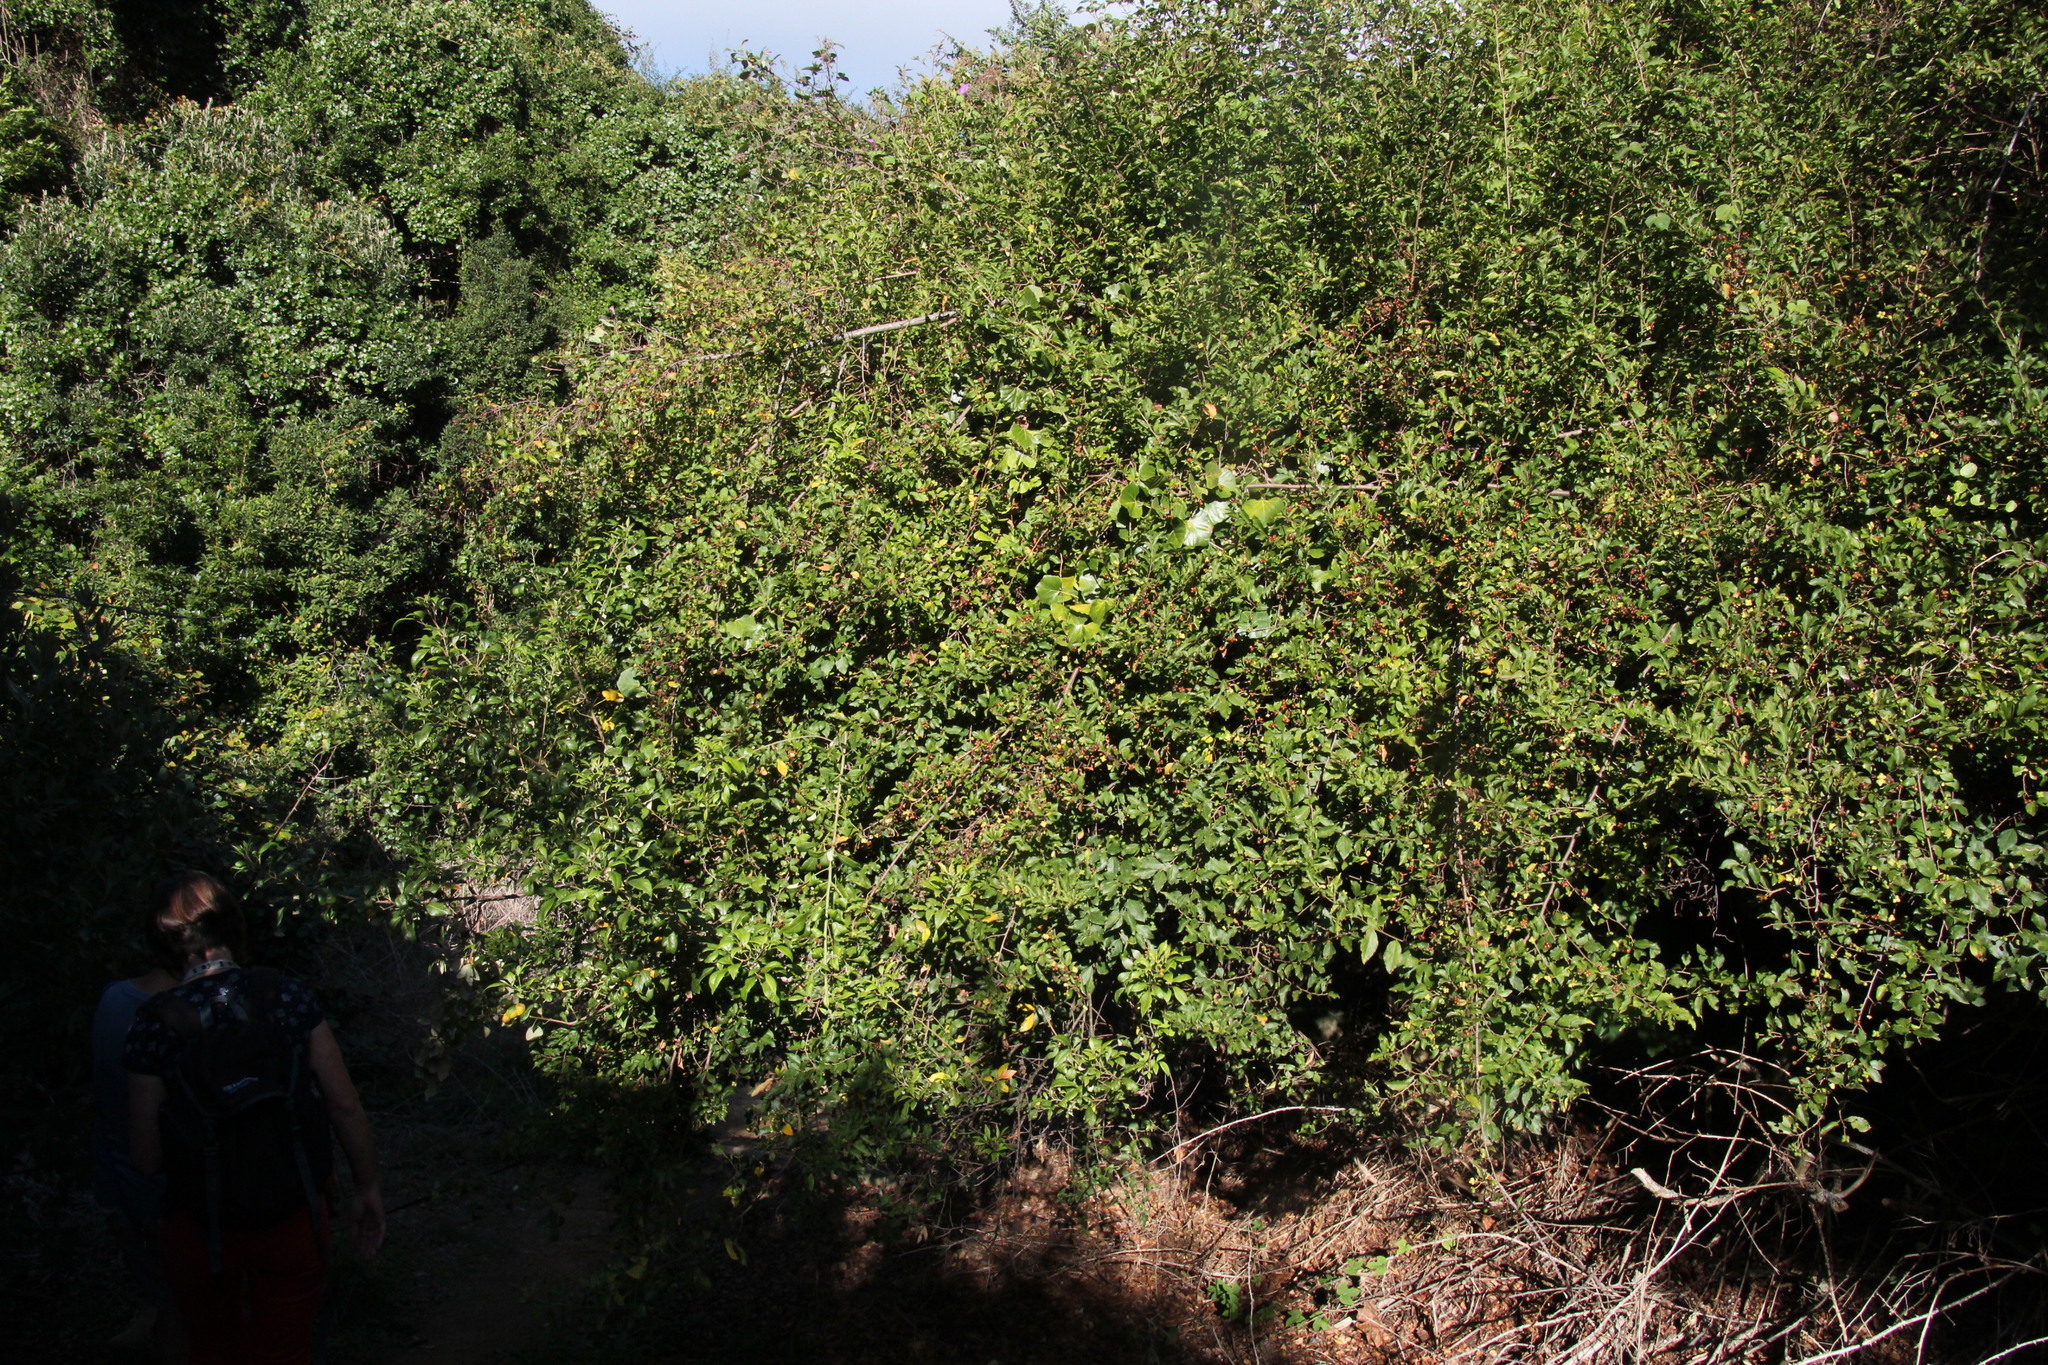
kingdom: Plantae
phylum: Tracheophyta
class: Magnoliopsida
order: Malvales
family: Malvaceae
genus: Grewia
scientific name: Grewia occidentalis
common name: Crossberry
